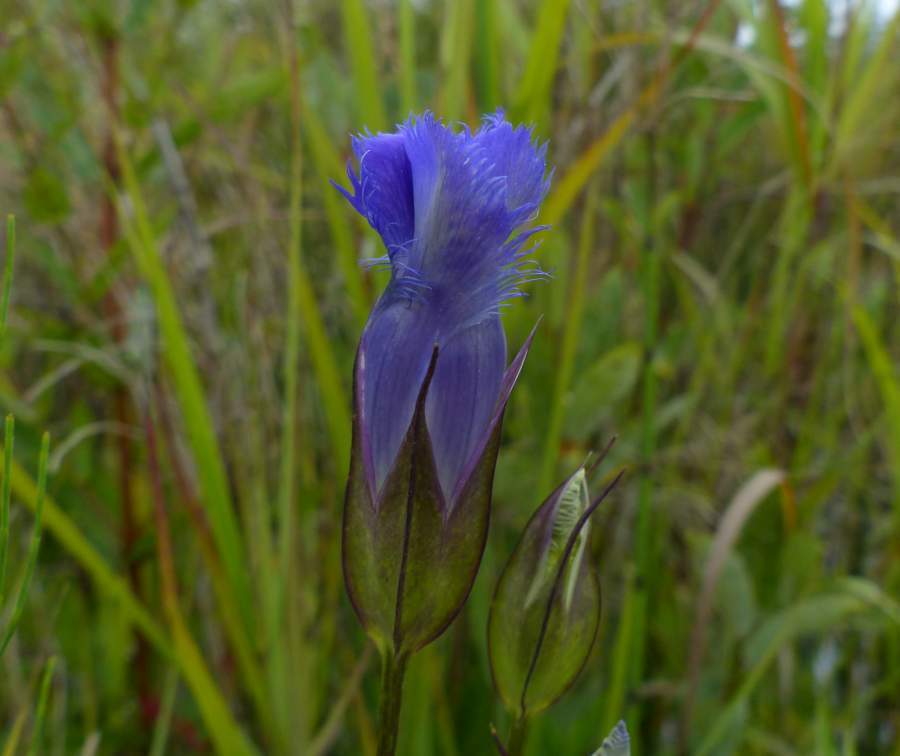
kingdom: Plantae
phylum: Tracheophyta
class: Magnoliopsida
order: Gentianales
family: Gentianaceae
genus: Gentianopsis
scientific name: Gentianopsis crinita
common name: Fringed-gentian
